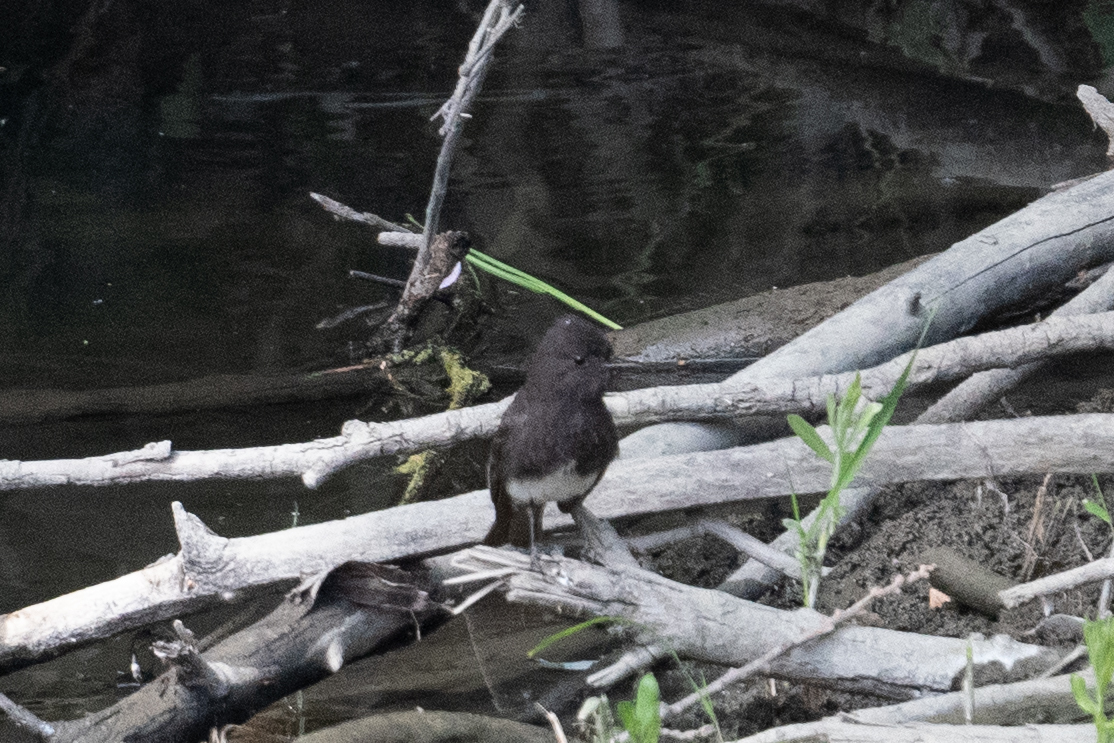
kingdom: Animalia
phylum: Chordata
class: Aves
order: Passeriformes
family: Tyrannidae
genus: Sayornis
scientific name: Sayornis nigricans
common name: Black phoebe
